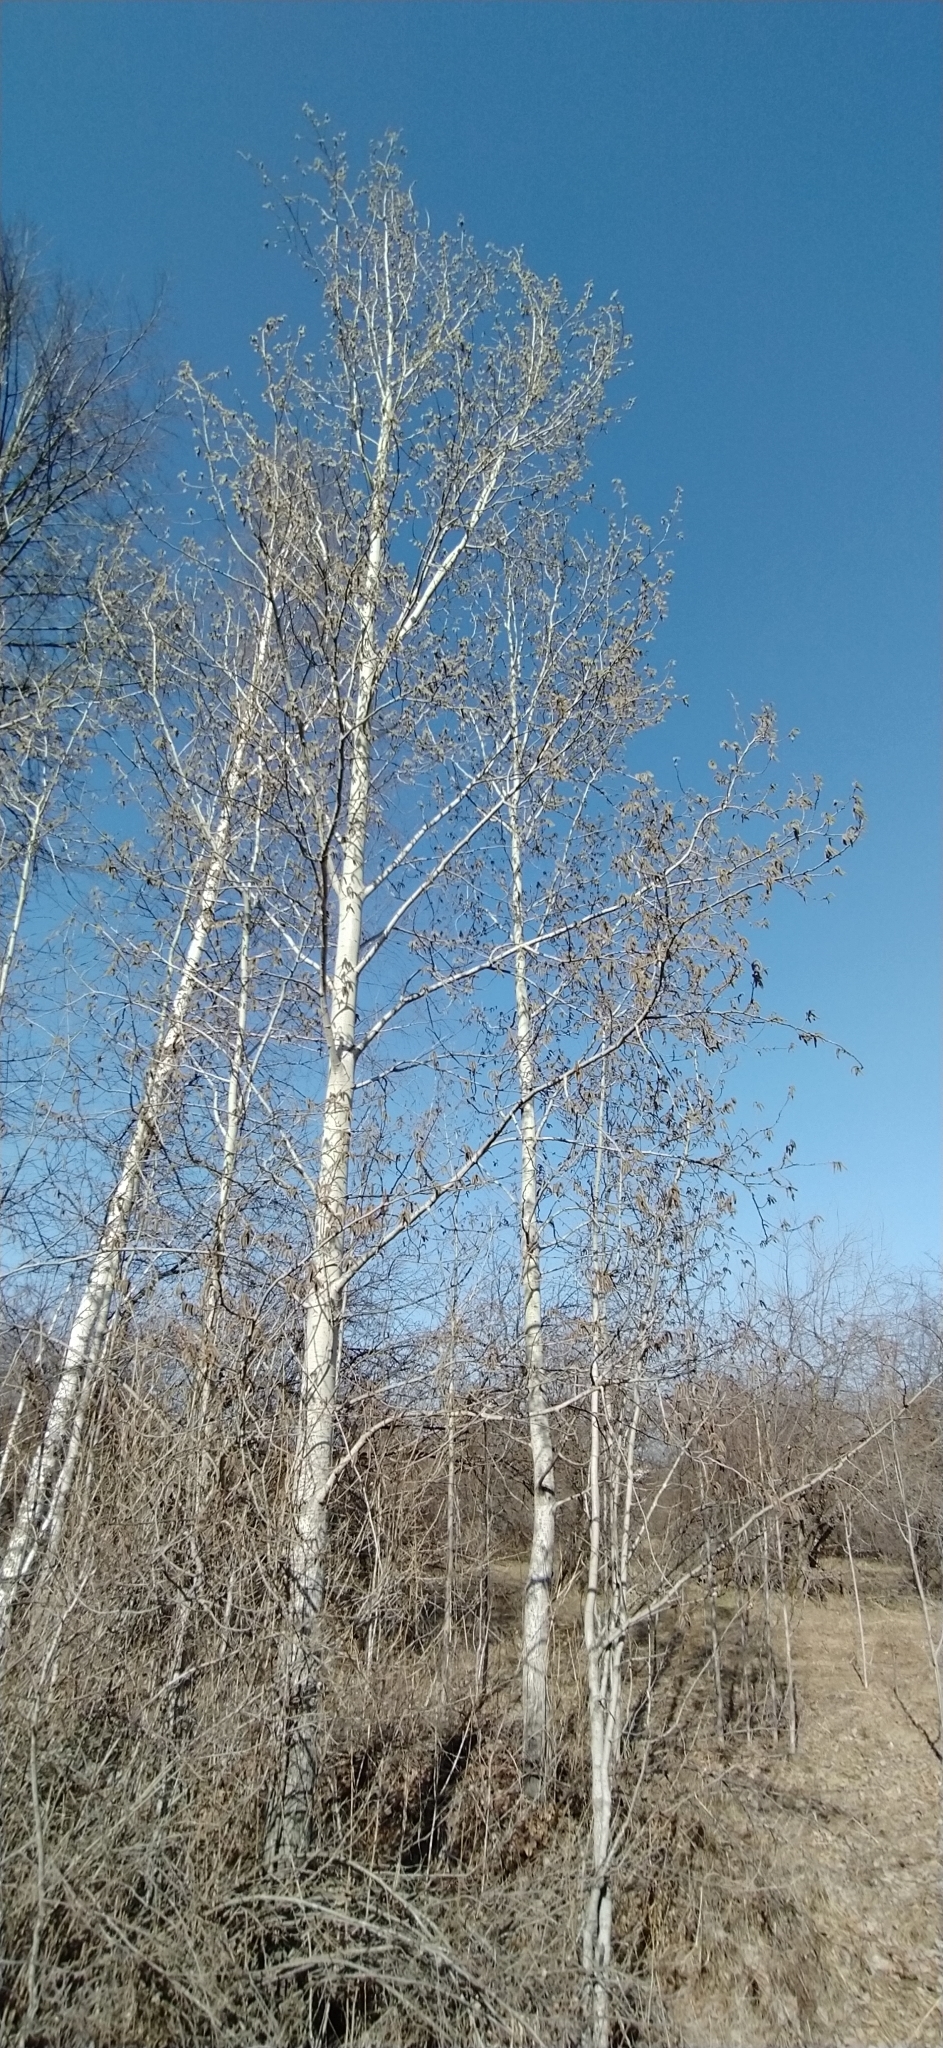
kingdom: Plantae
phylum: Tracheophyta
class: Magnoliopsida
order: Malpighiales
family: Salicaceae
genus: Populus
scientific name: Populus tremula
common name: European aspen
